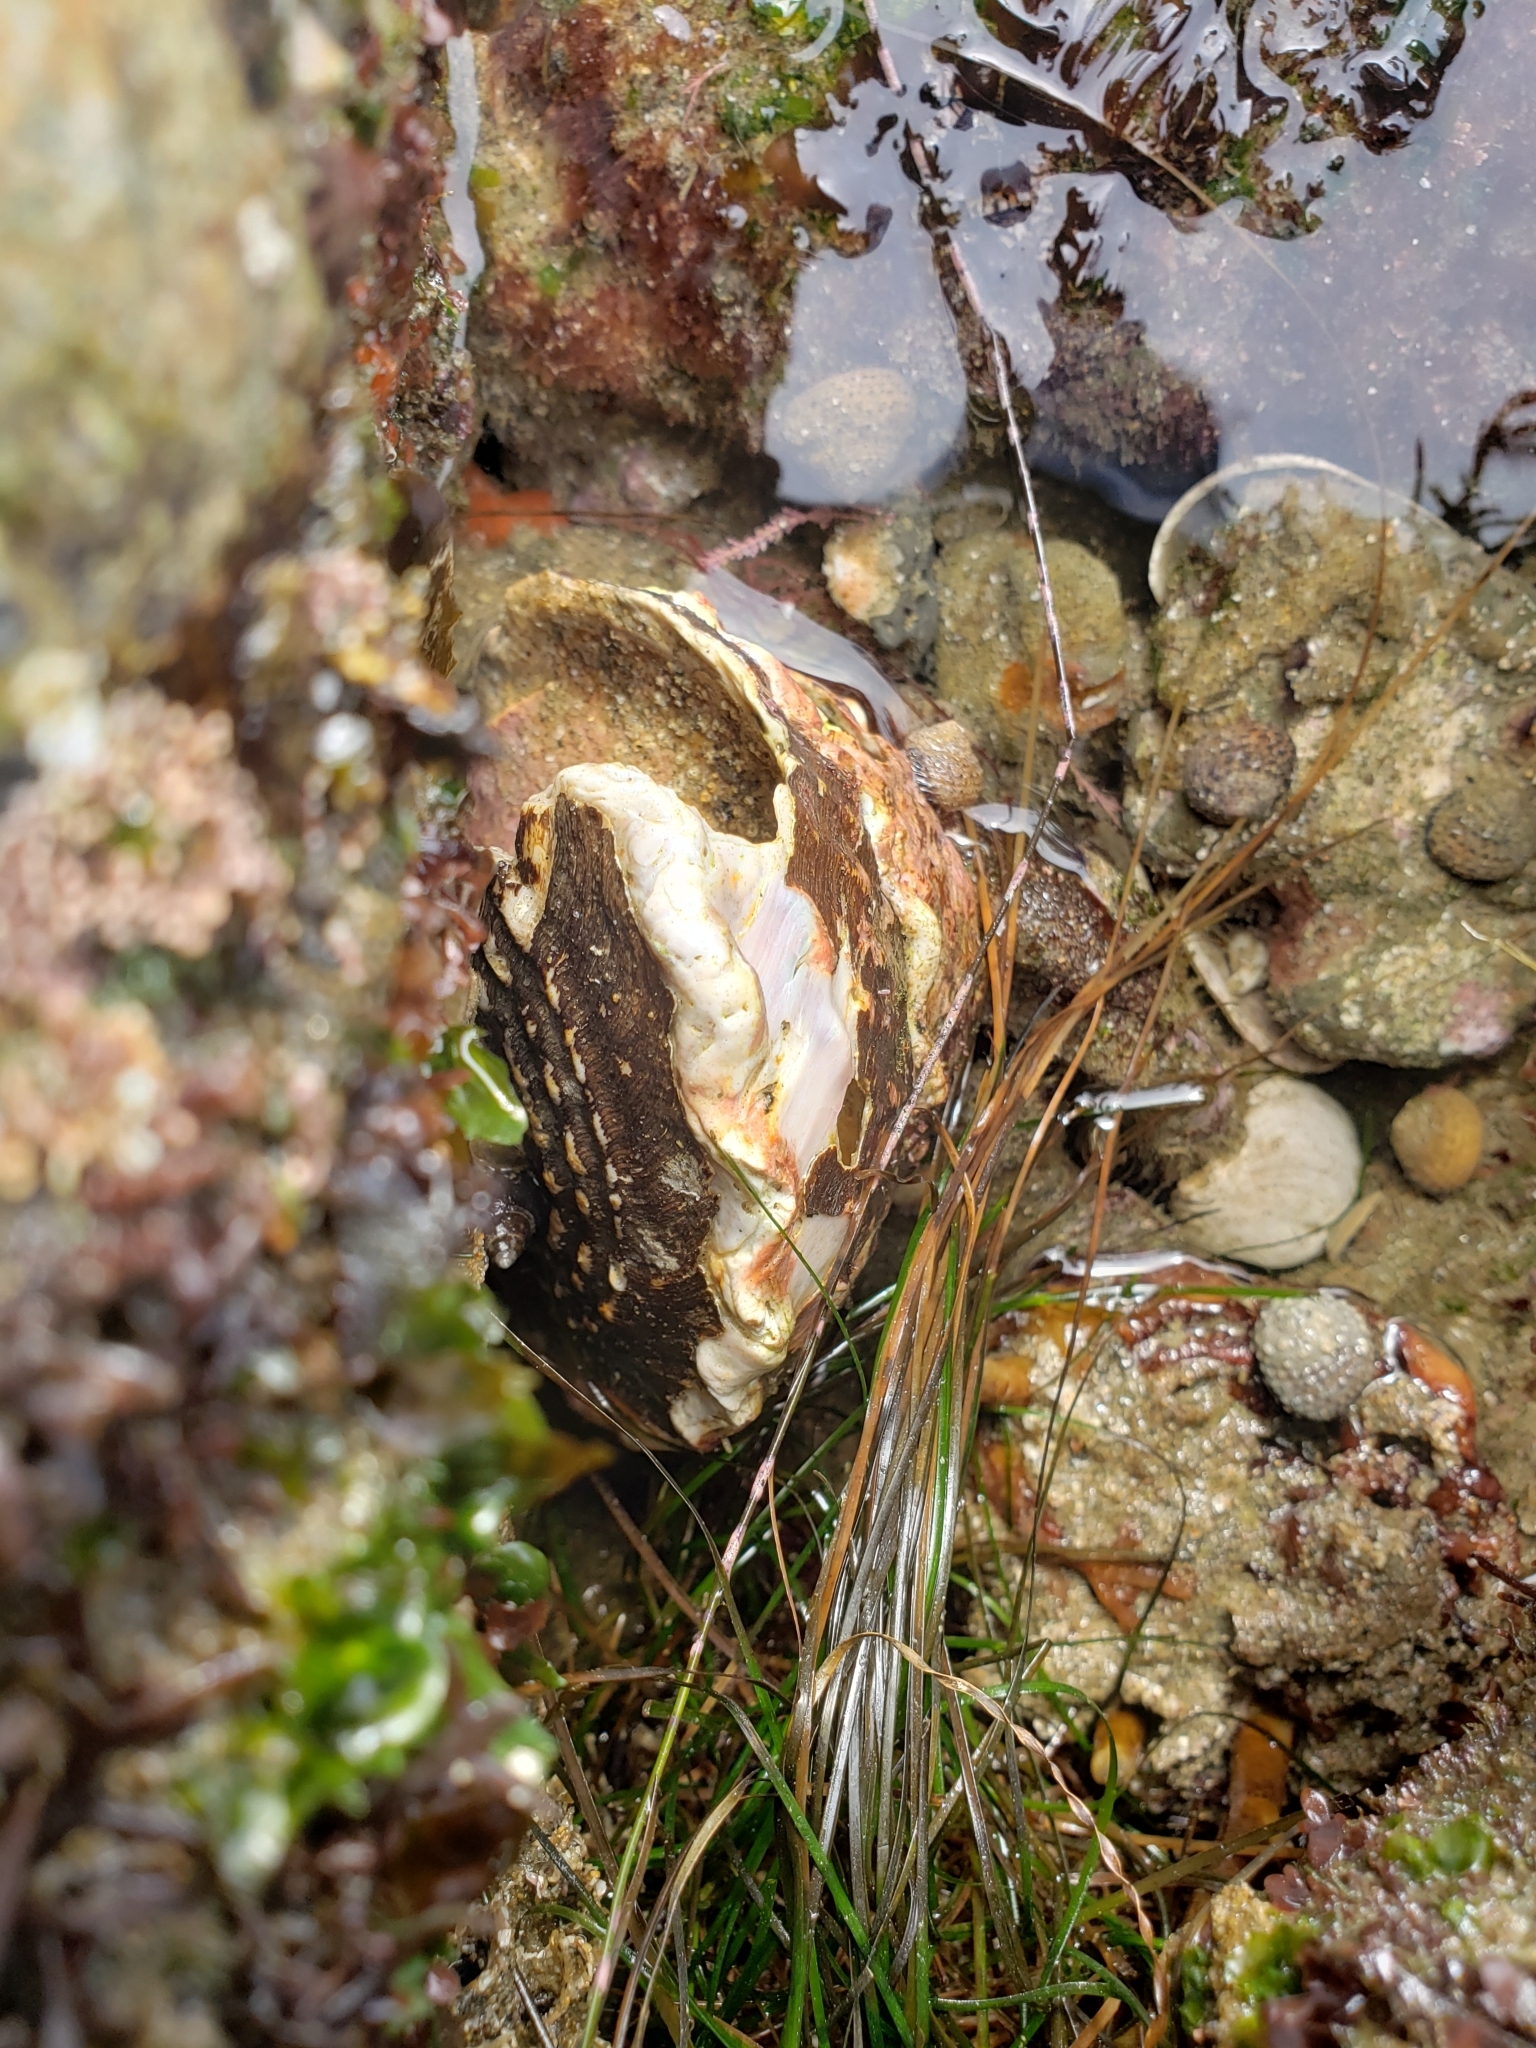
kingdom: Animalia
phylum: Mollusca
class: Gastropoda
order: Trochida
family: Turbinidae
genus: Megastraea
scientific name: Megastraea undosa
